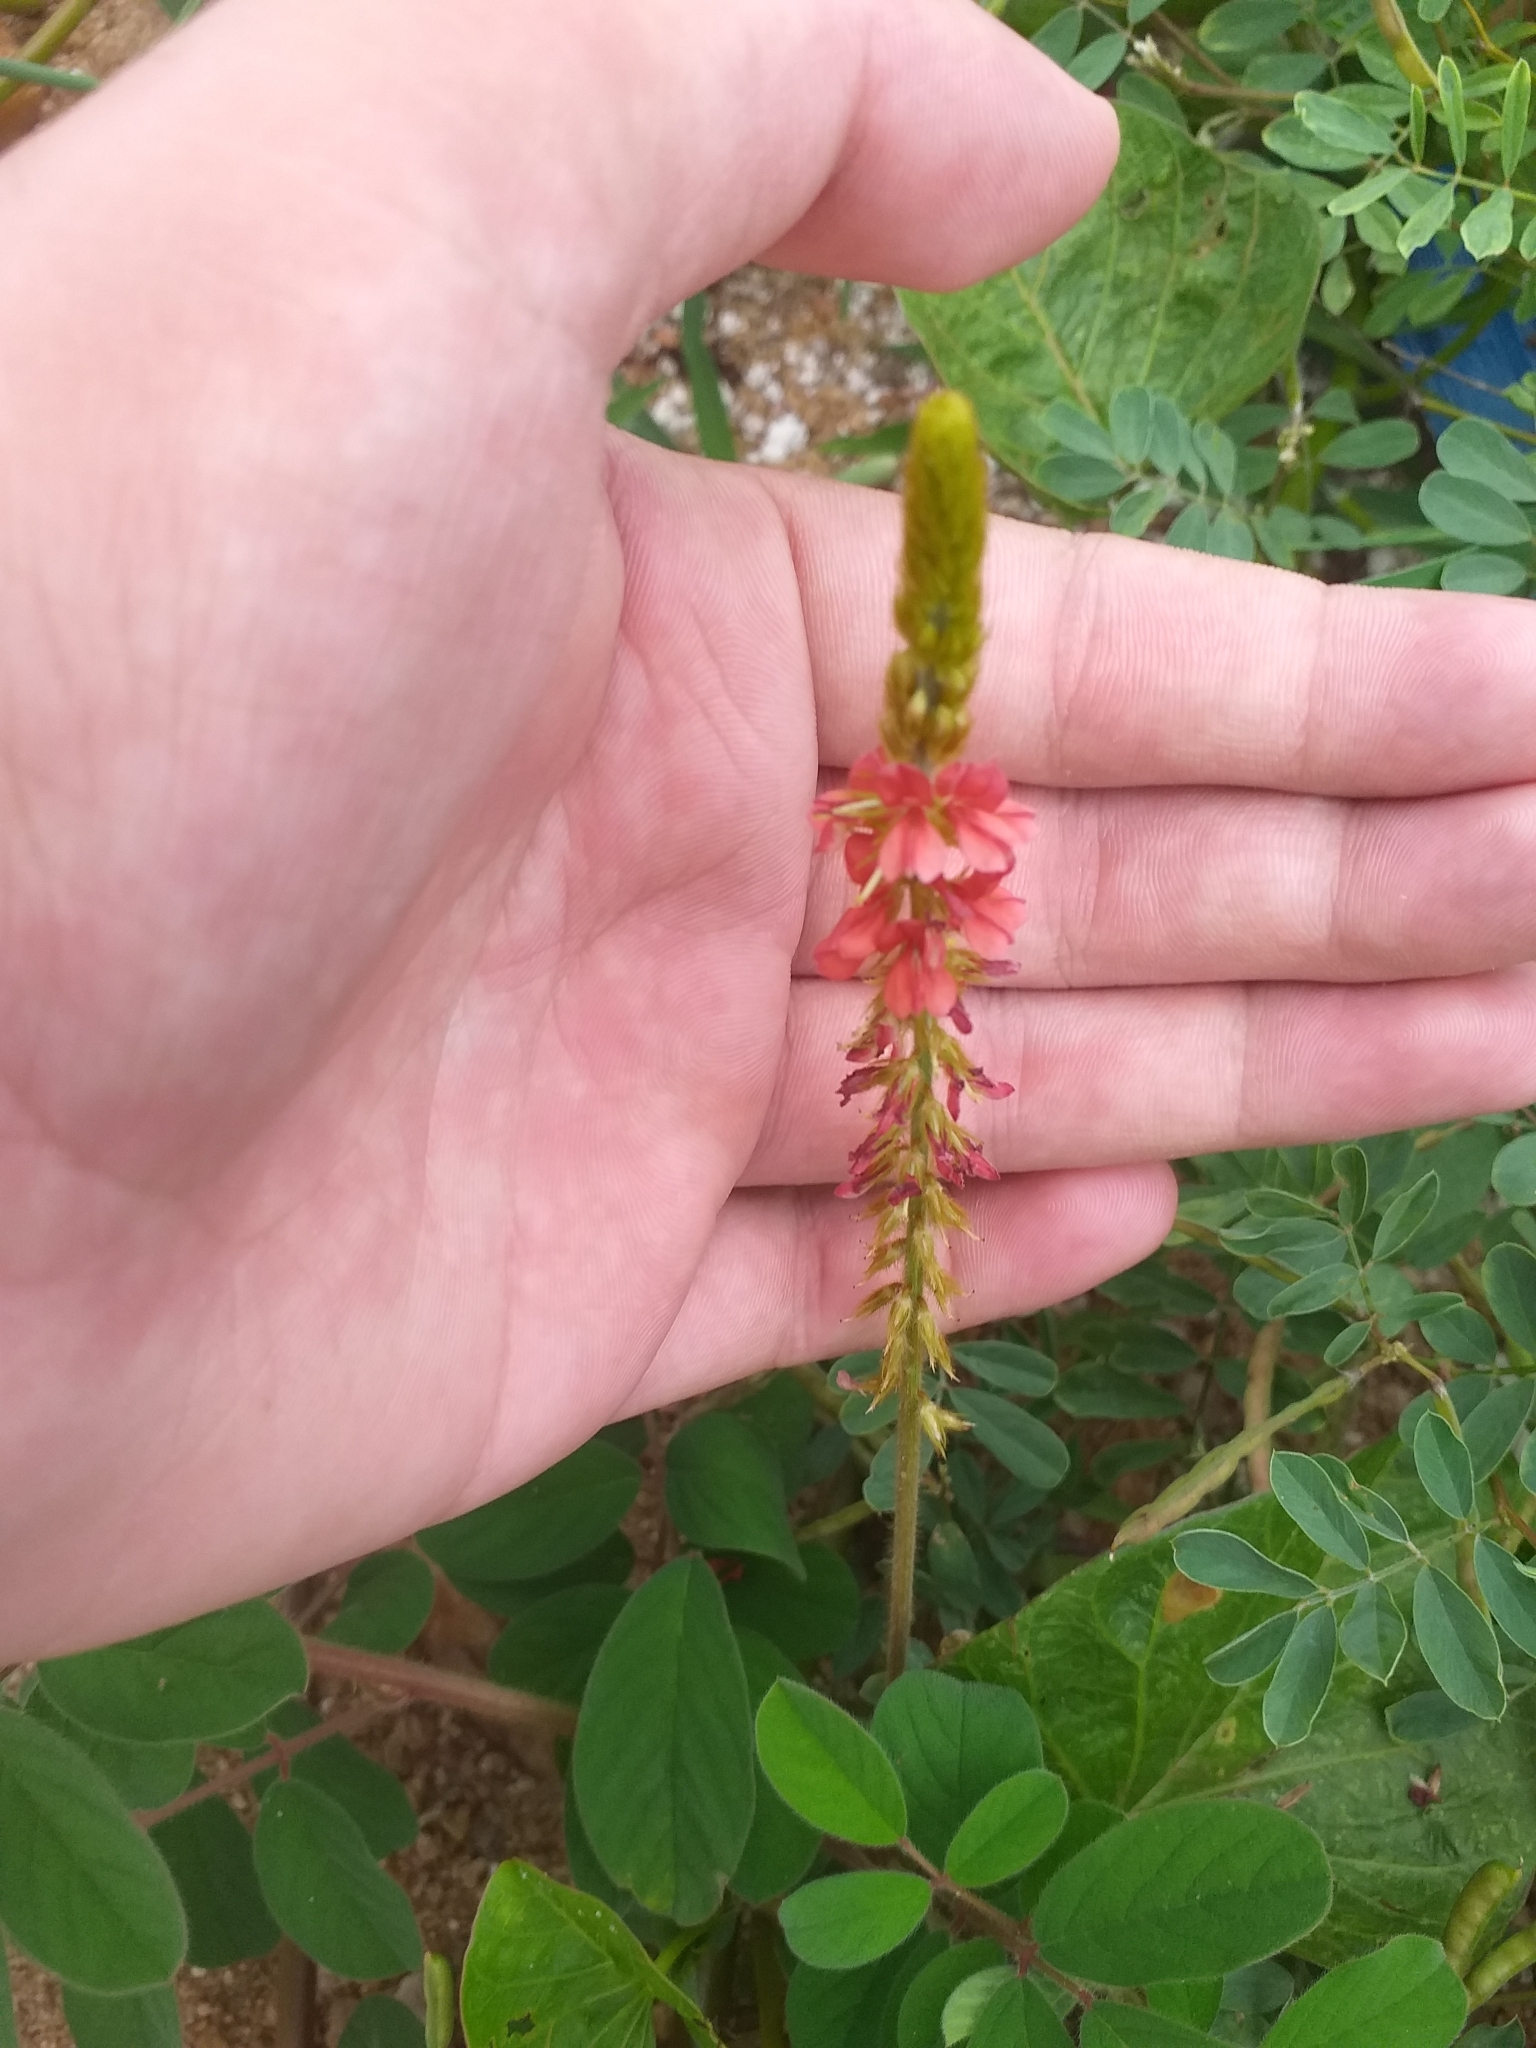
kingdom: Plantae
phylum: Tracheophyta
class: Magnoliopsida
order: Fabales
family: Fabaceae
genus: Indigofera
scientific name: Indigofera hirsuta
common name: Hairy indigo
